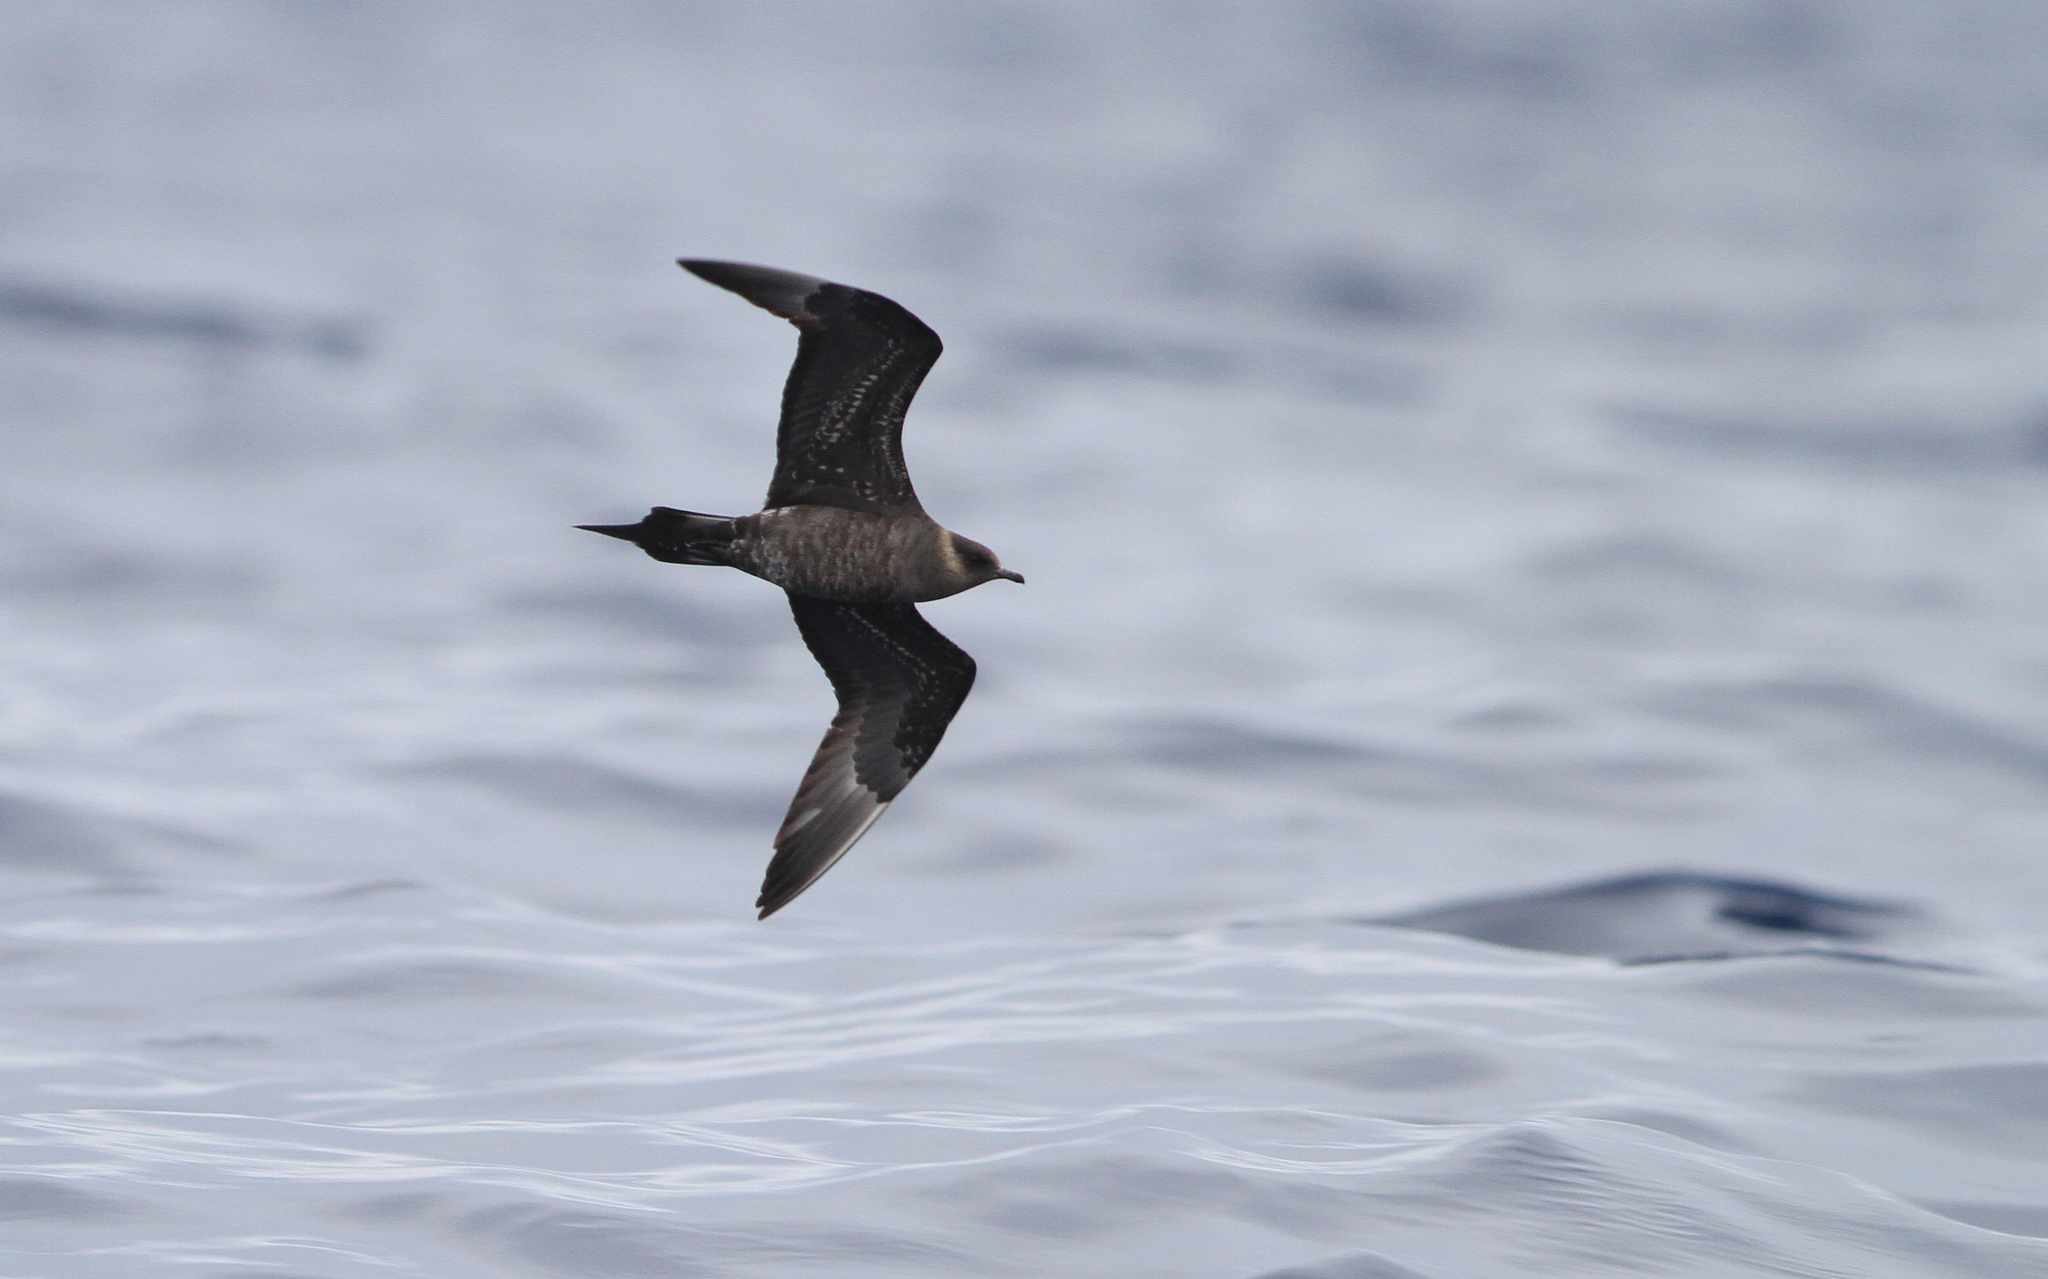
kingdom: Animalia
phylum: Chordata
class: Aves
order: Charadriiformes
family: Stercorariidae
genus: Stercorarius
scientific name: Stercorarius parasiticus
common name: Parasitic jaeger
